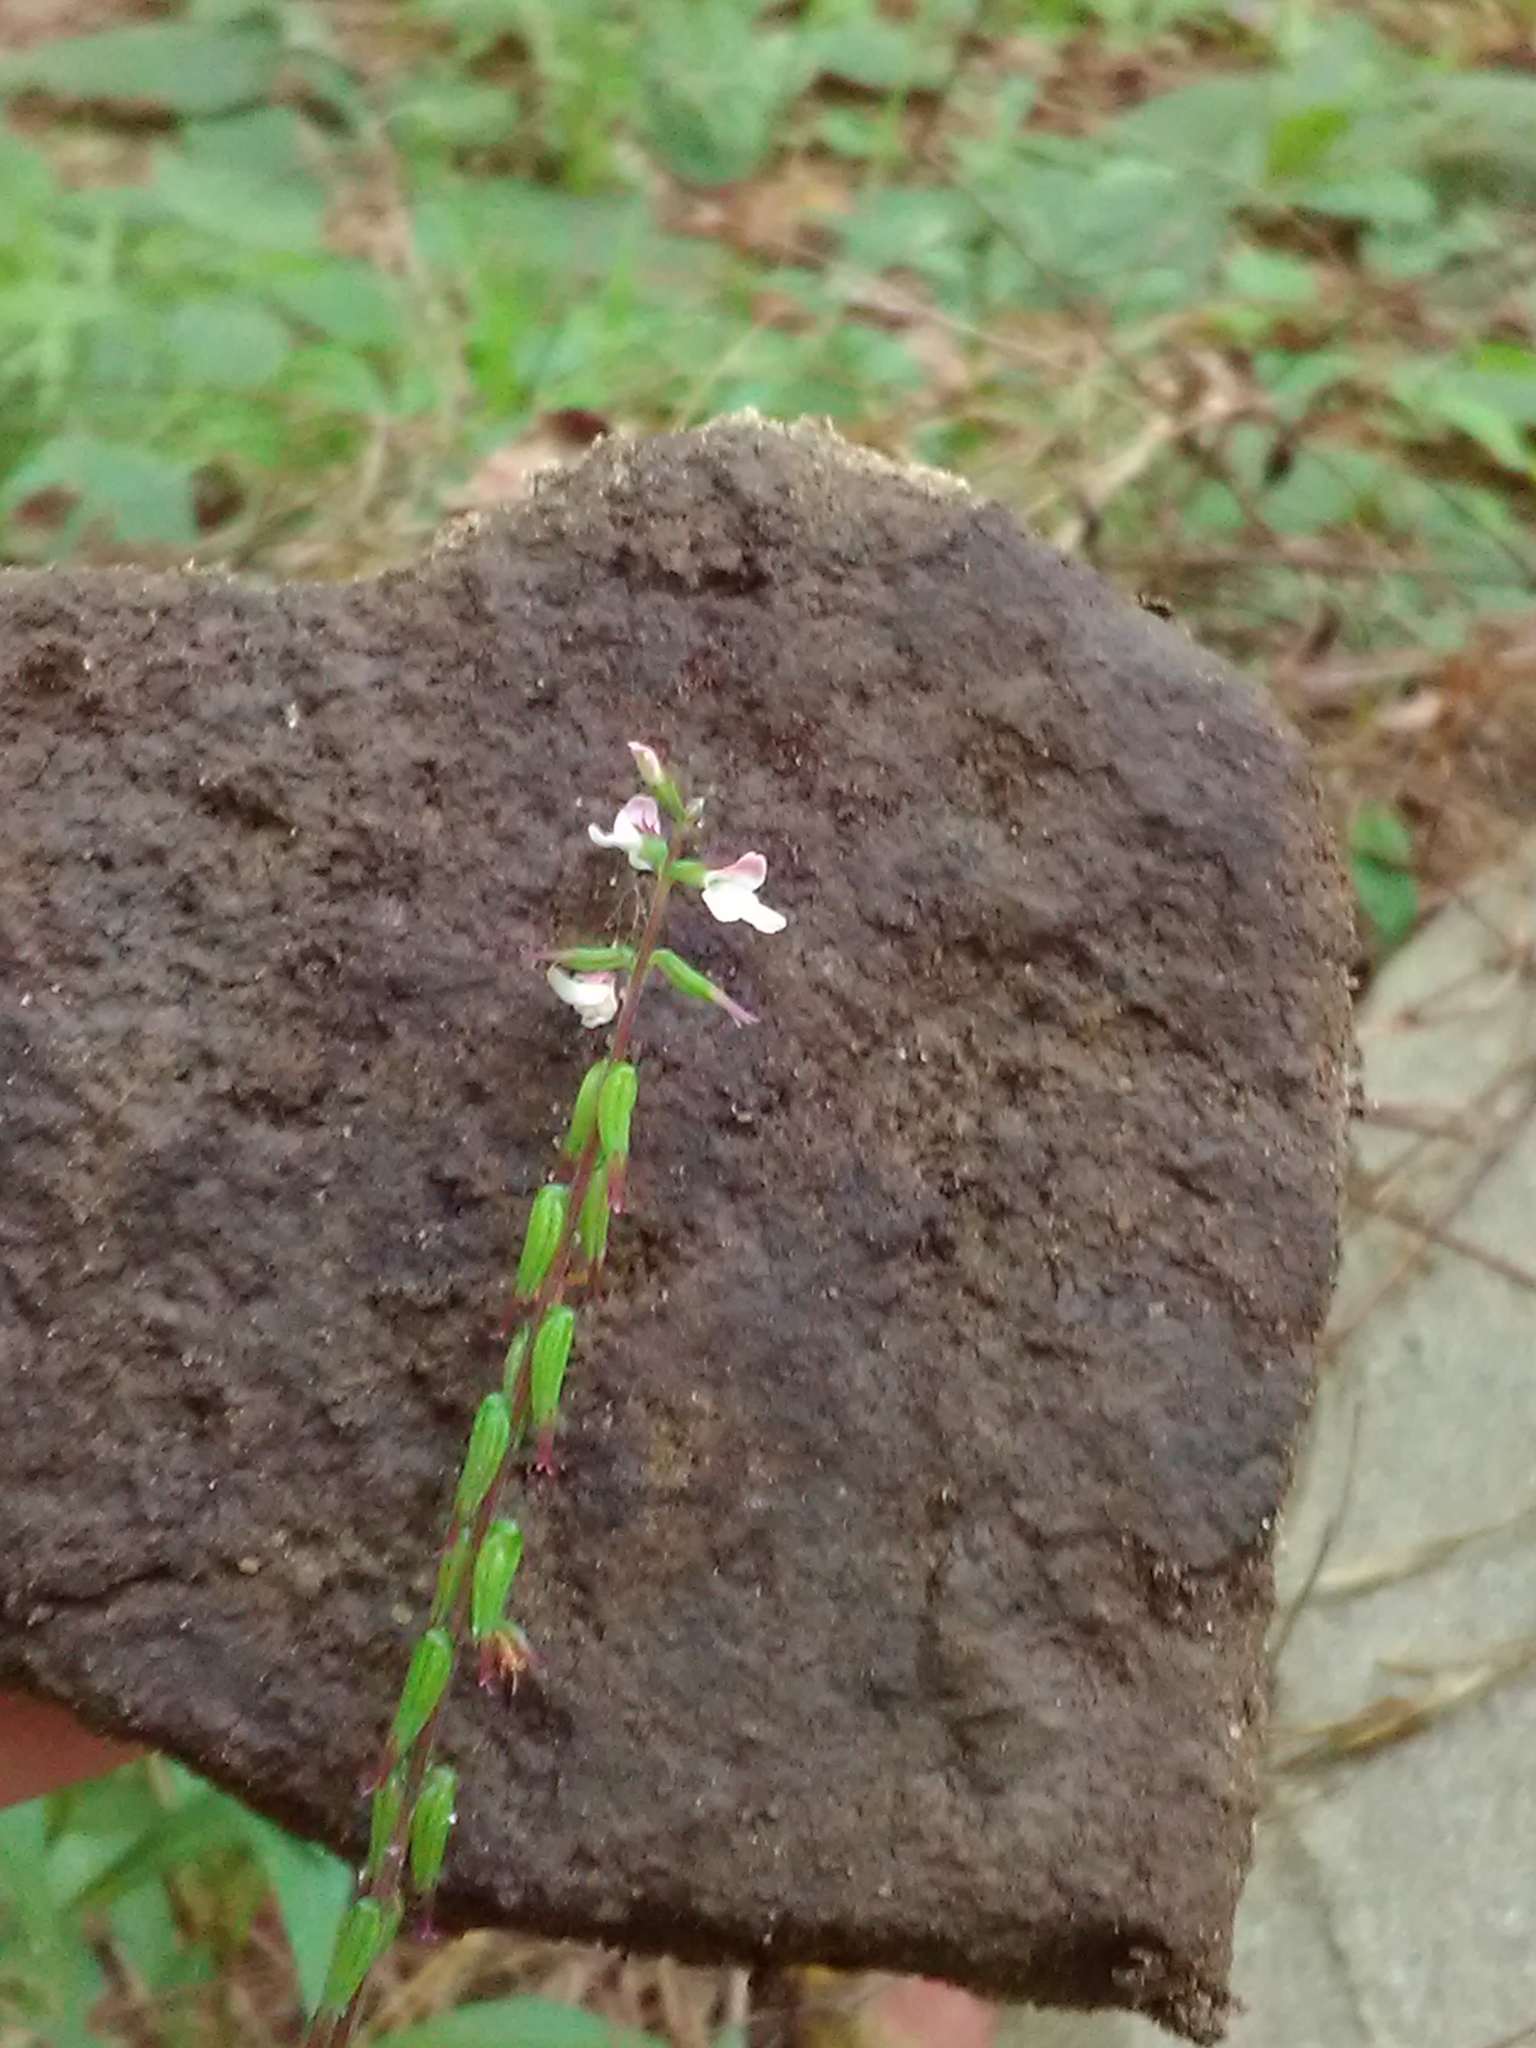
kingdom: Plantae
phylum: Tracheophyta
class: Magnoliopsida
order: Lamiales
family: Phrymaceae
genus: Phryma
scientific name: Phryma leptostachya
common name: American lopseed
